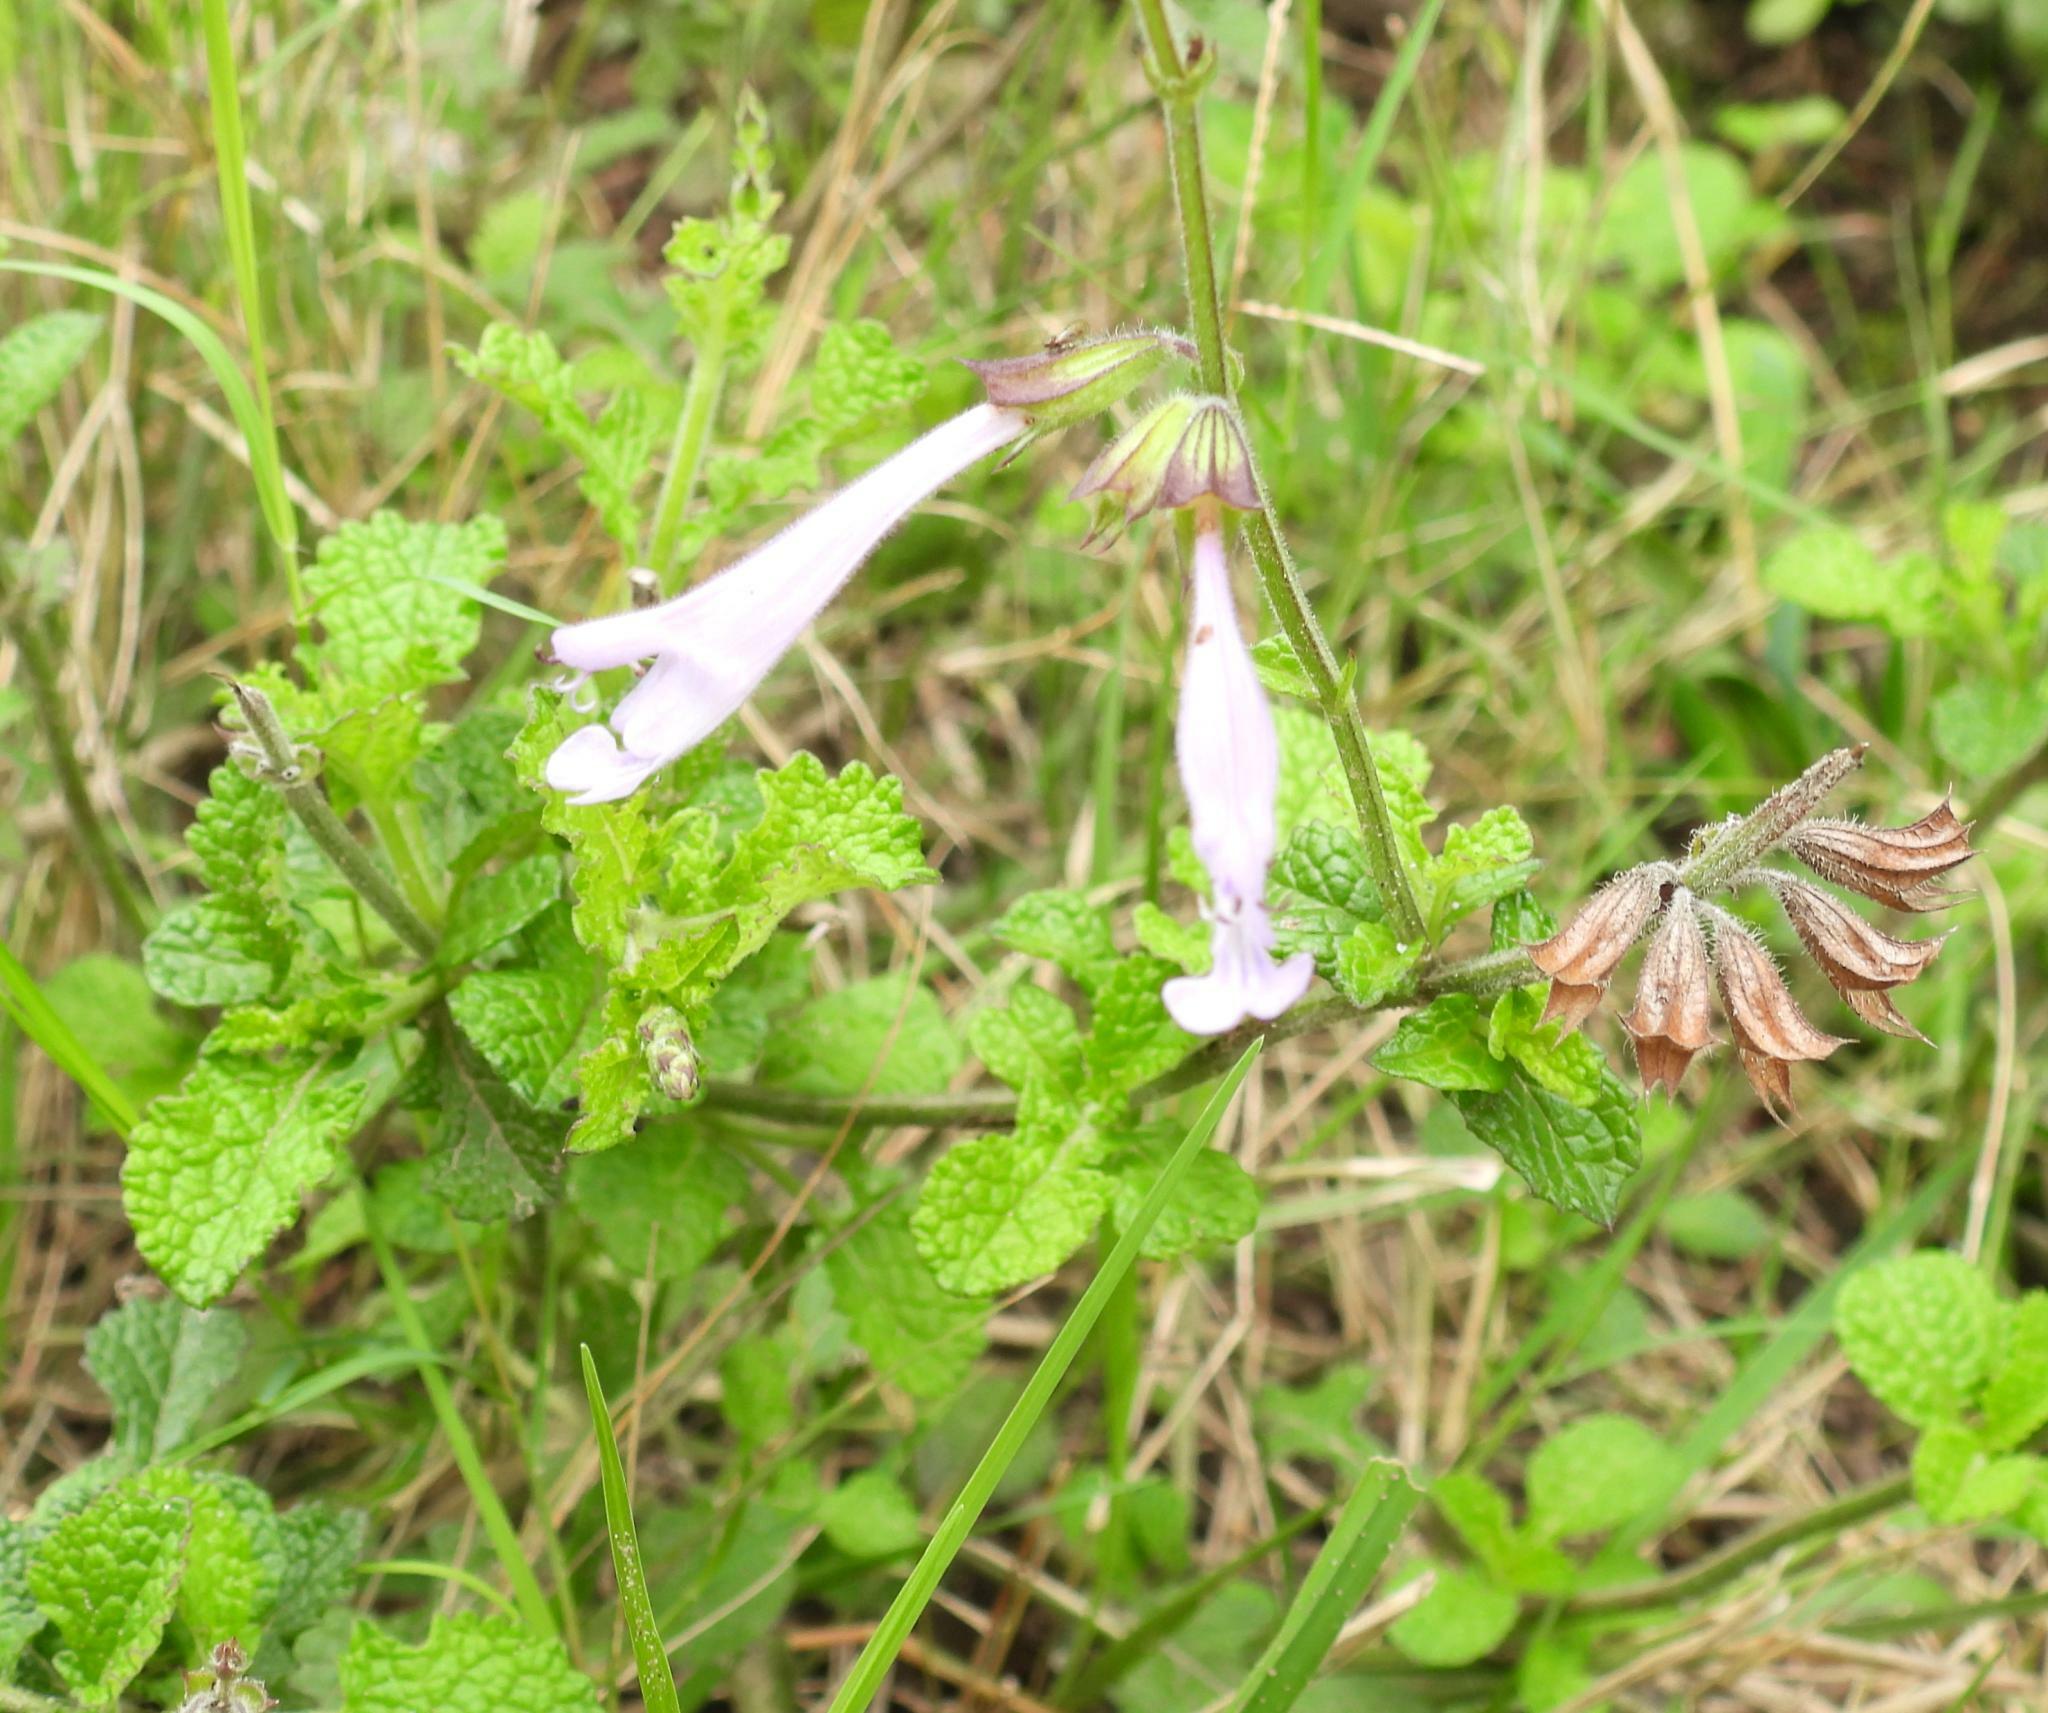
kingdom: Plantae
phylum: Tracheophyta
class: Magnoliopsida
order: Lamiales
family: Lamiaceae
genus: Salvia
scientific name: Salvia scabra
